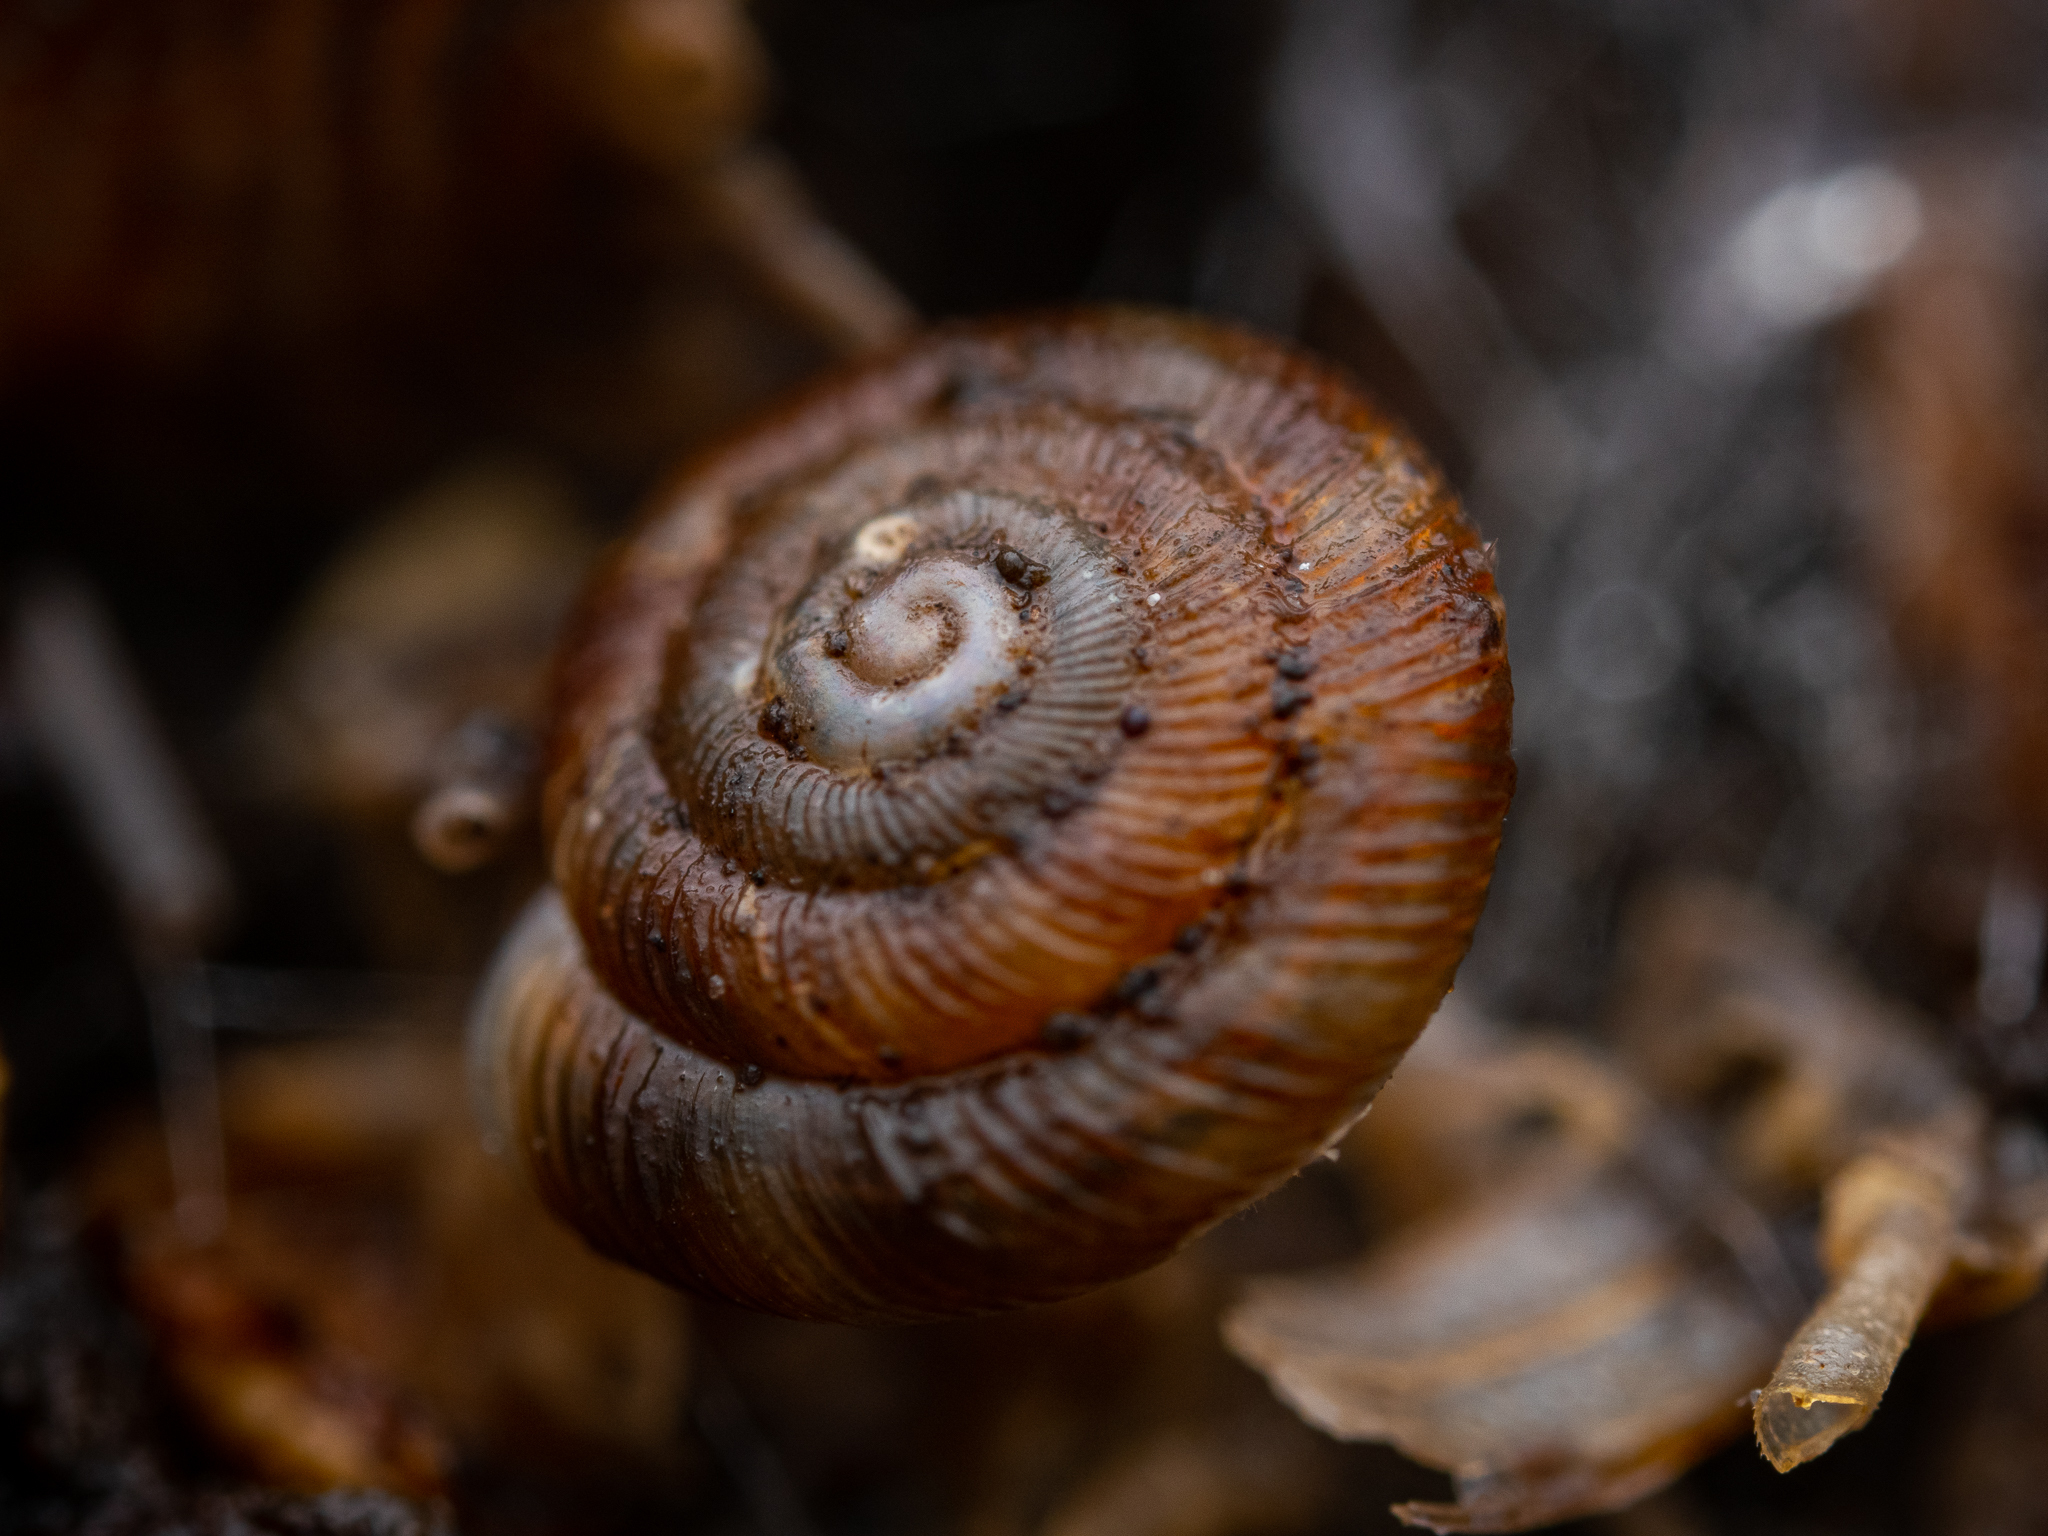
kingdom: Animalia
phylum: Mollusca
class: Gastropoda
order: Stylommatophora
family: Discidae
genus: Discus
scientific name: Discus rotundatus
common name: Rounded snail
